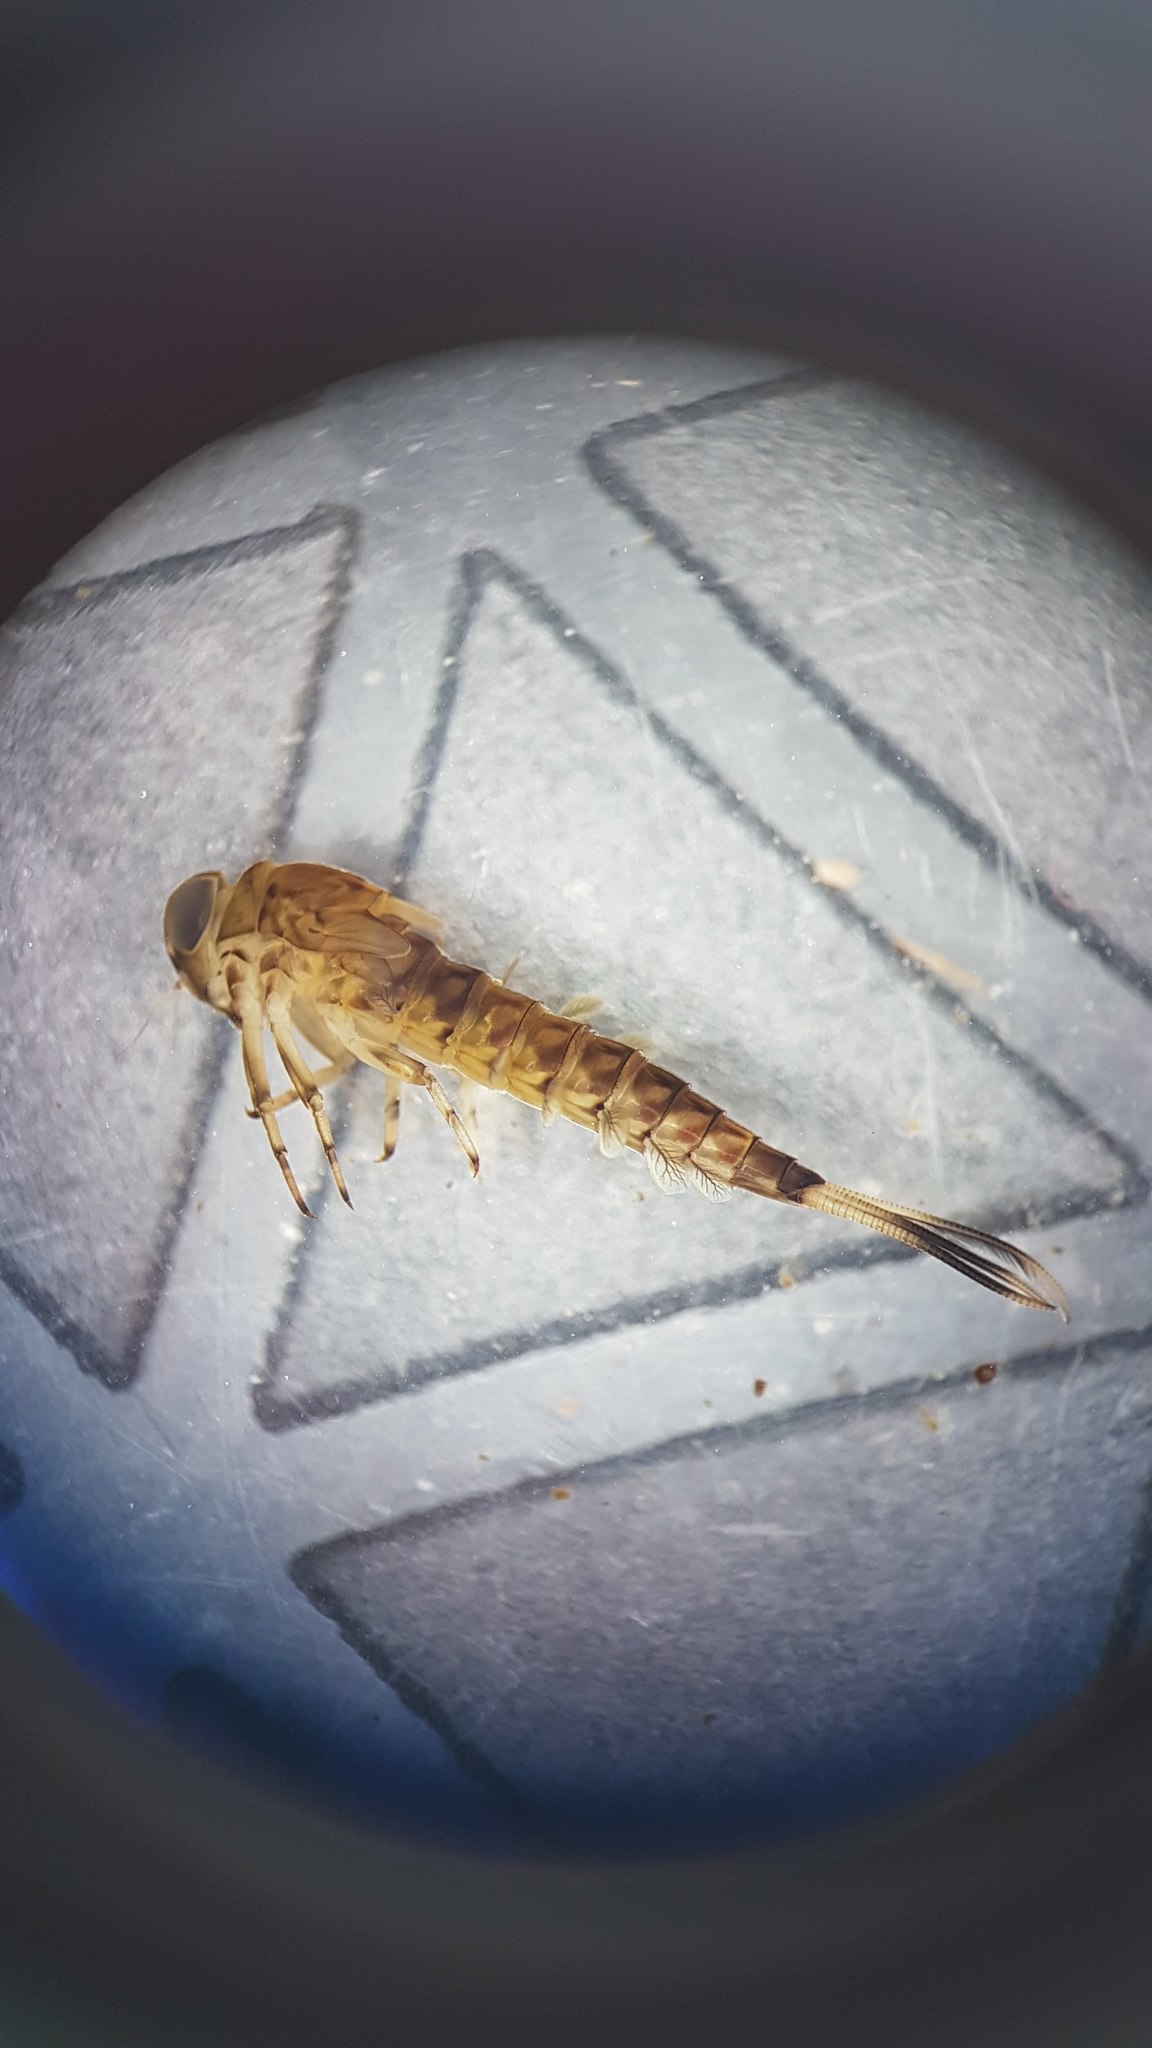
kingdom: Animalia
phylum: Arthropoda
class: Insecta
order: Ephemeroptera
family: Nesameletidae
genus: Nesameletus
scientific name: Nesameletus ornatus
